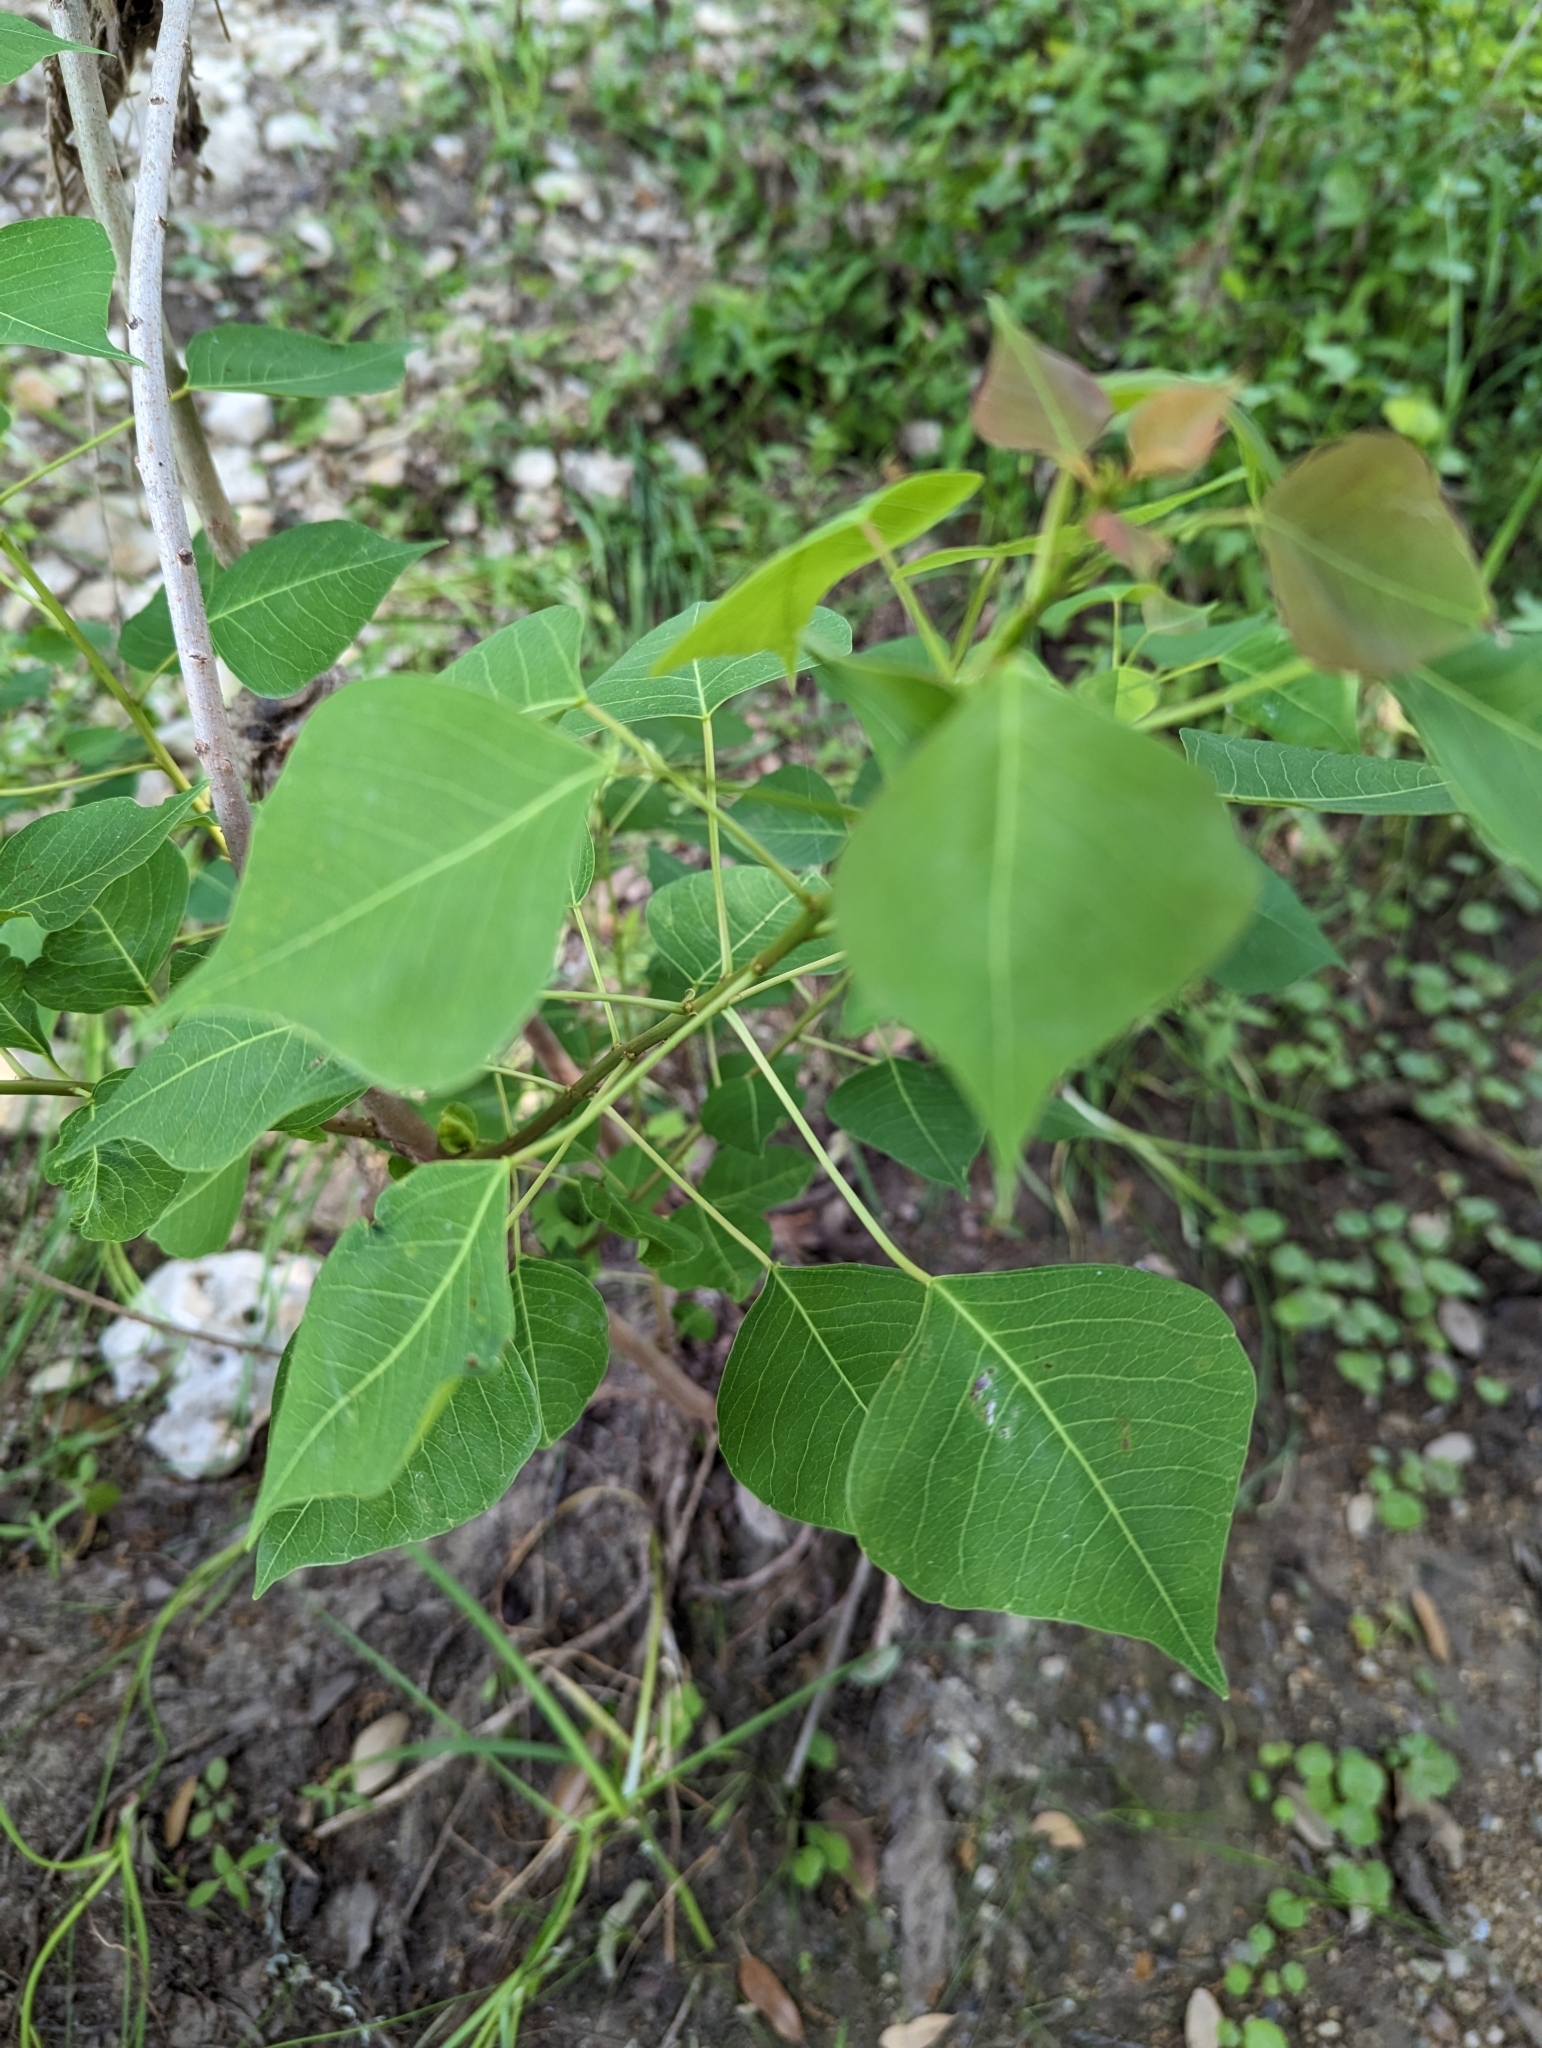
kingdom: Plantae
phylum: Tracheophyta
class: Magnoliopsida
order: Malpighiales
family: Euphorbiaceae
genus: Triadica
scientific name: Triadica sebifera
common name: Chinese tallow
